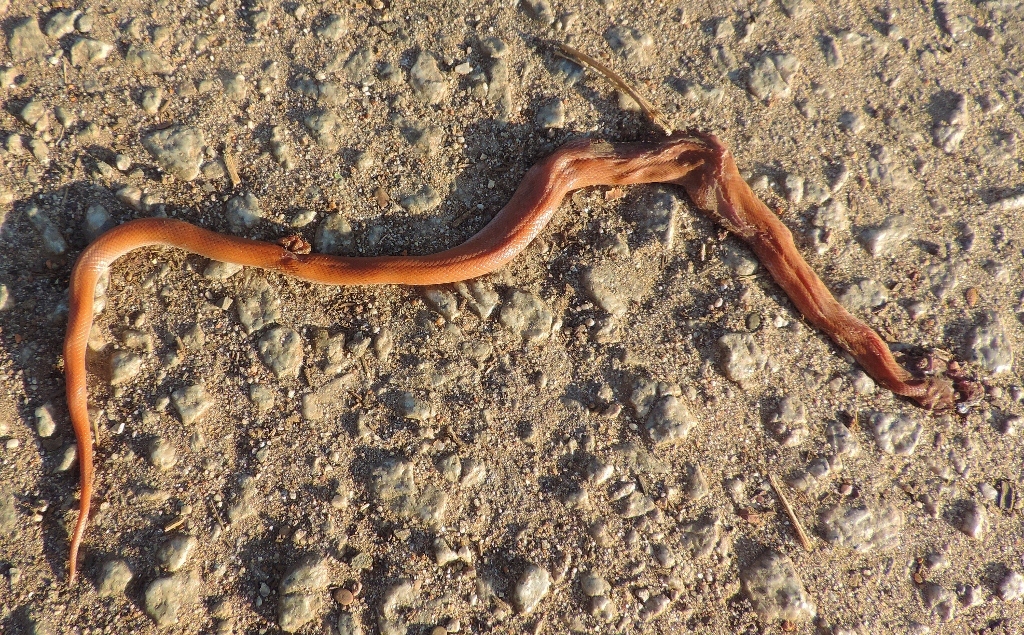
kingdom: Animalia
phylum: Chordata
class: Squamata
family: Lamprophiidae
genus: Boaedon
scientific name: Boaedon capensis
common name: Brown house snake
